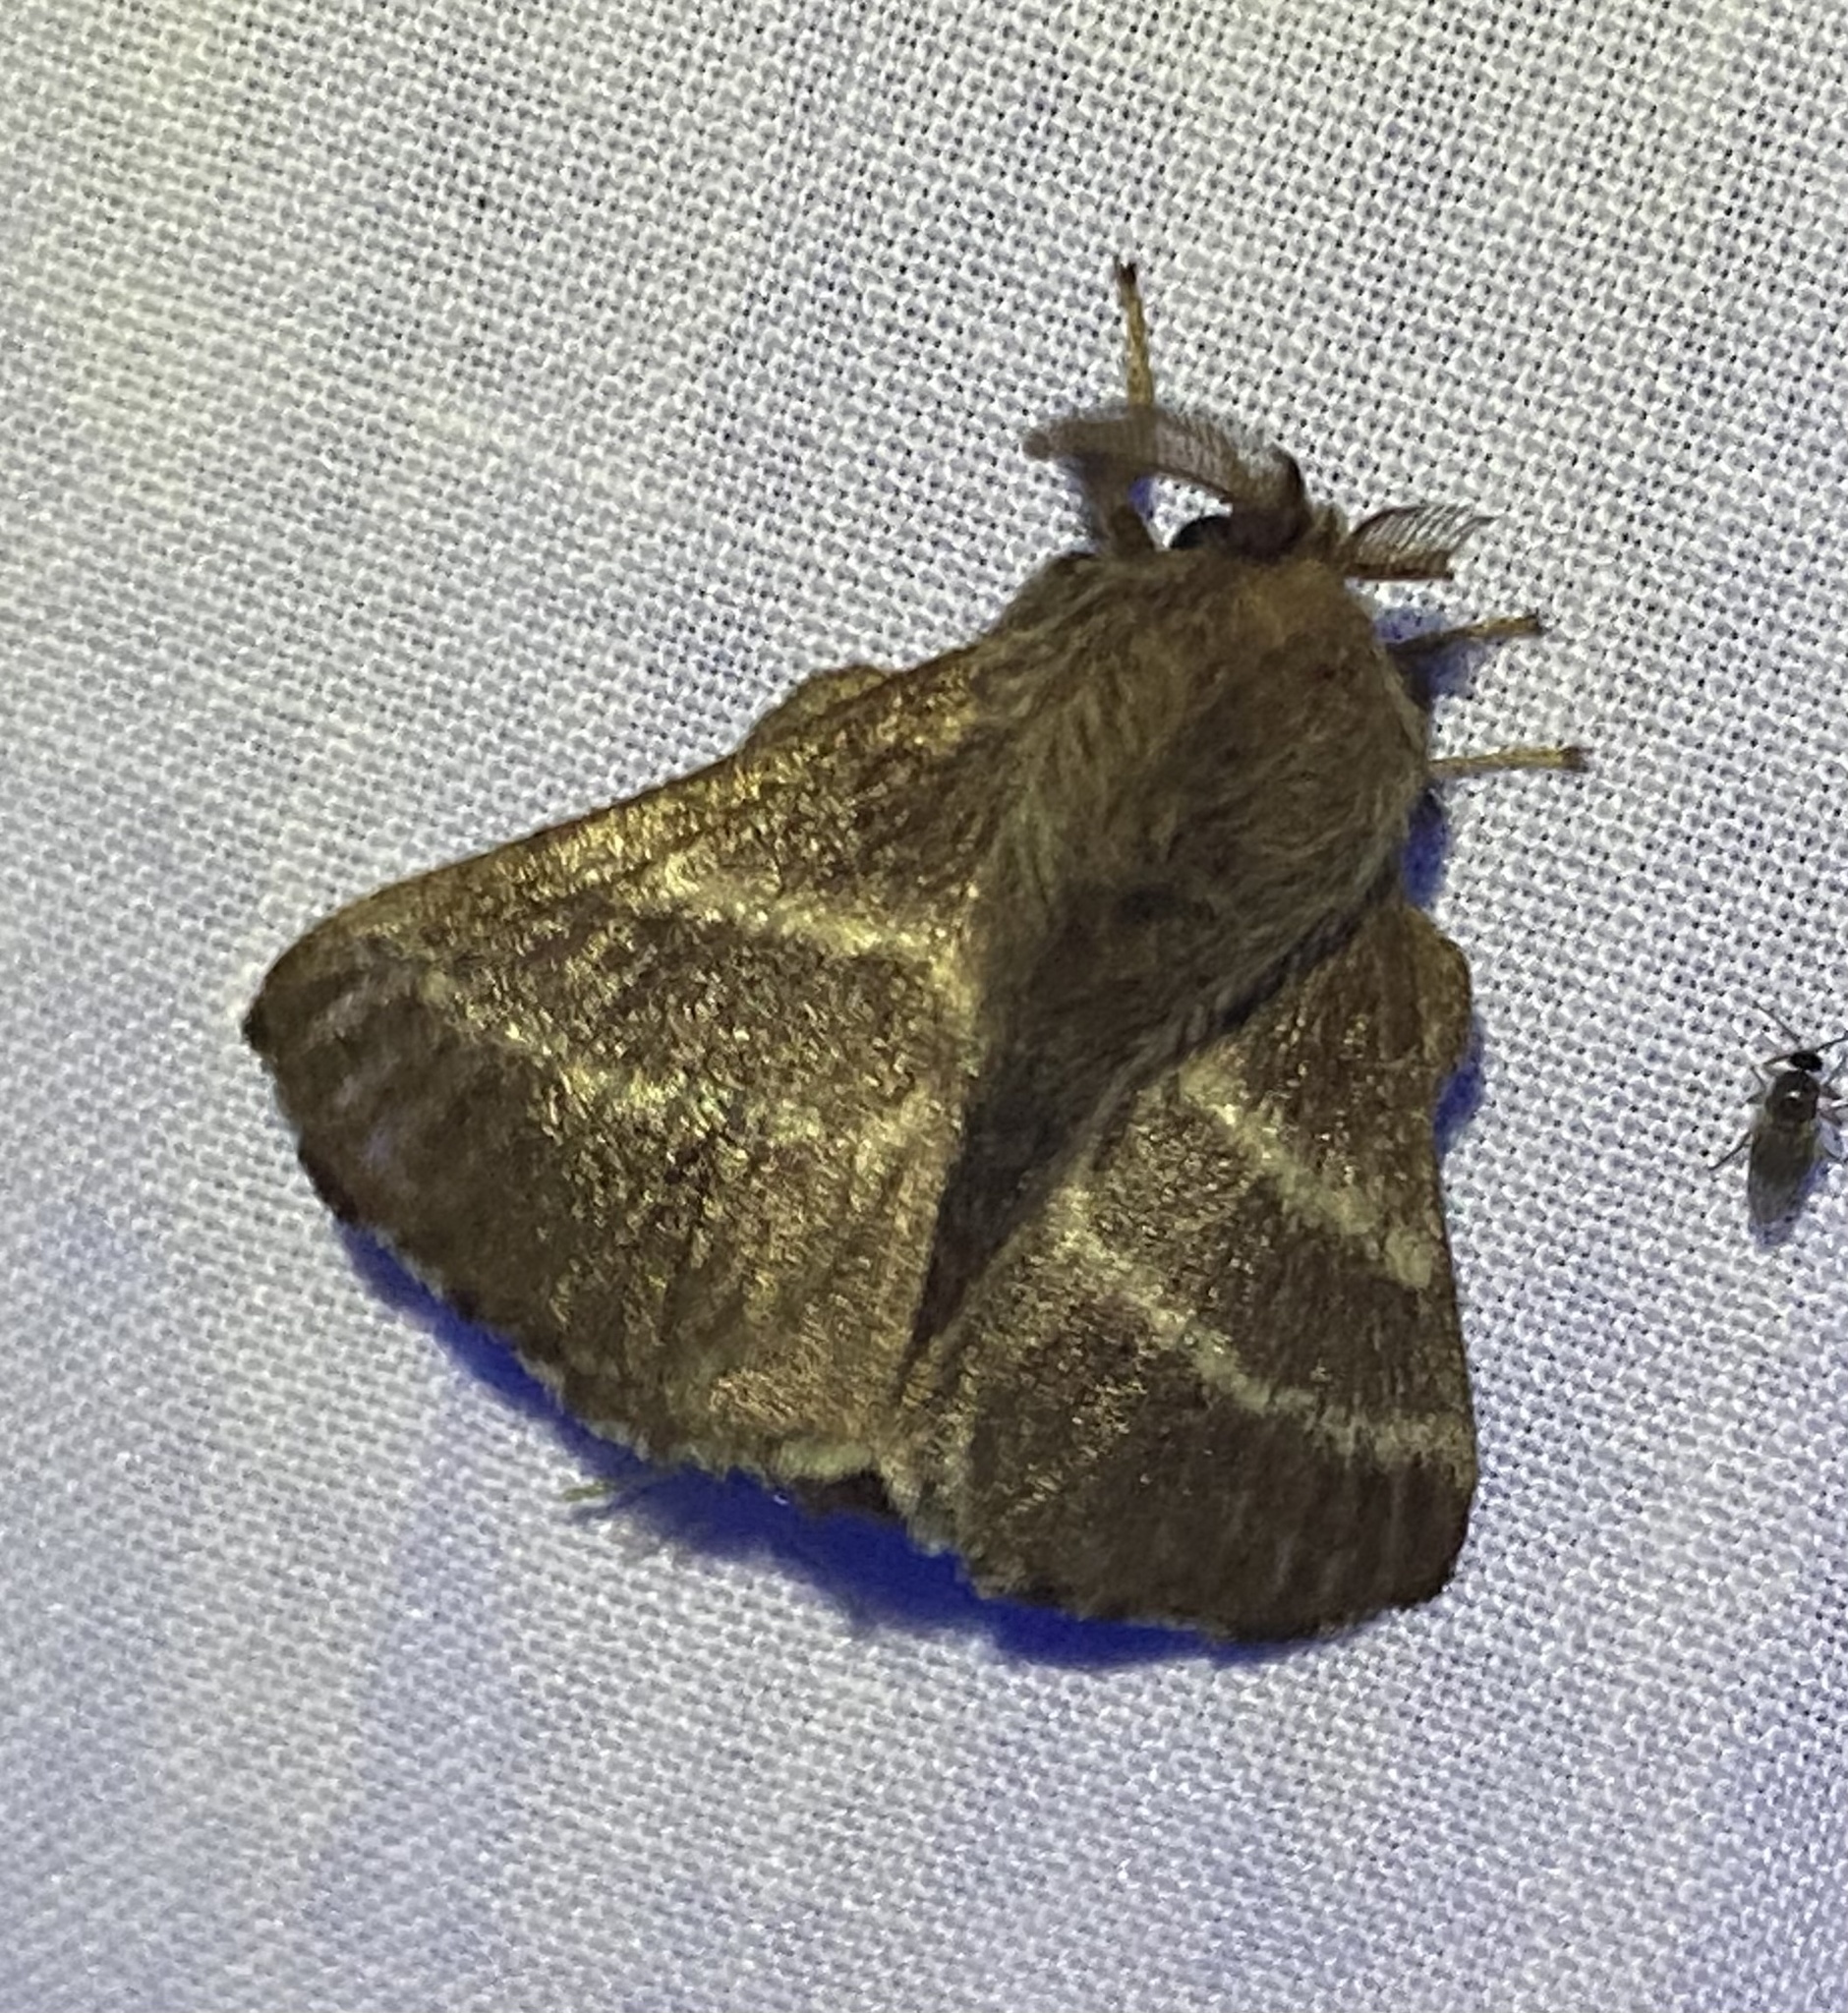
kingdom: Animalia
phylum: Arthropoda
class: Insecta
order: Lepidoptera
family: Lasiocampidae
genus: Malacosoma
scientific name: Malacosoma americana
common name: Eastern tent caterpillar moth
